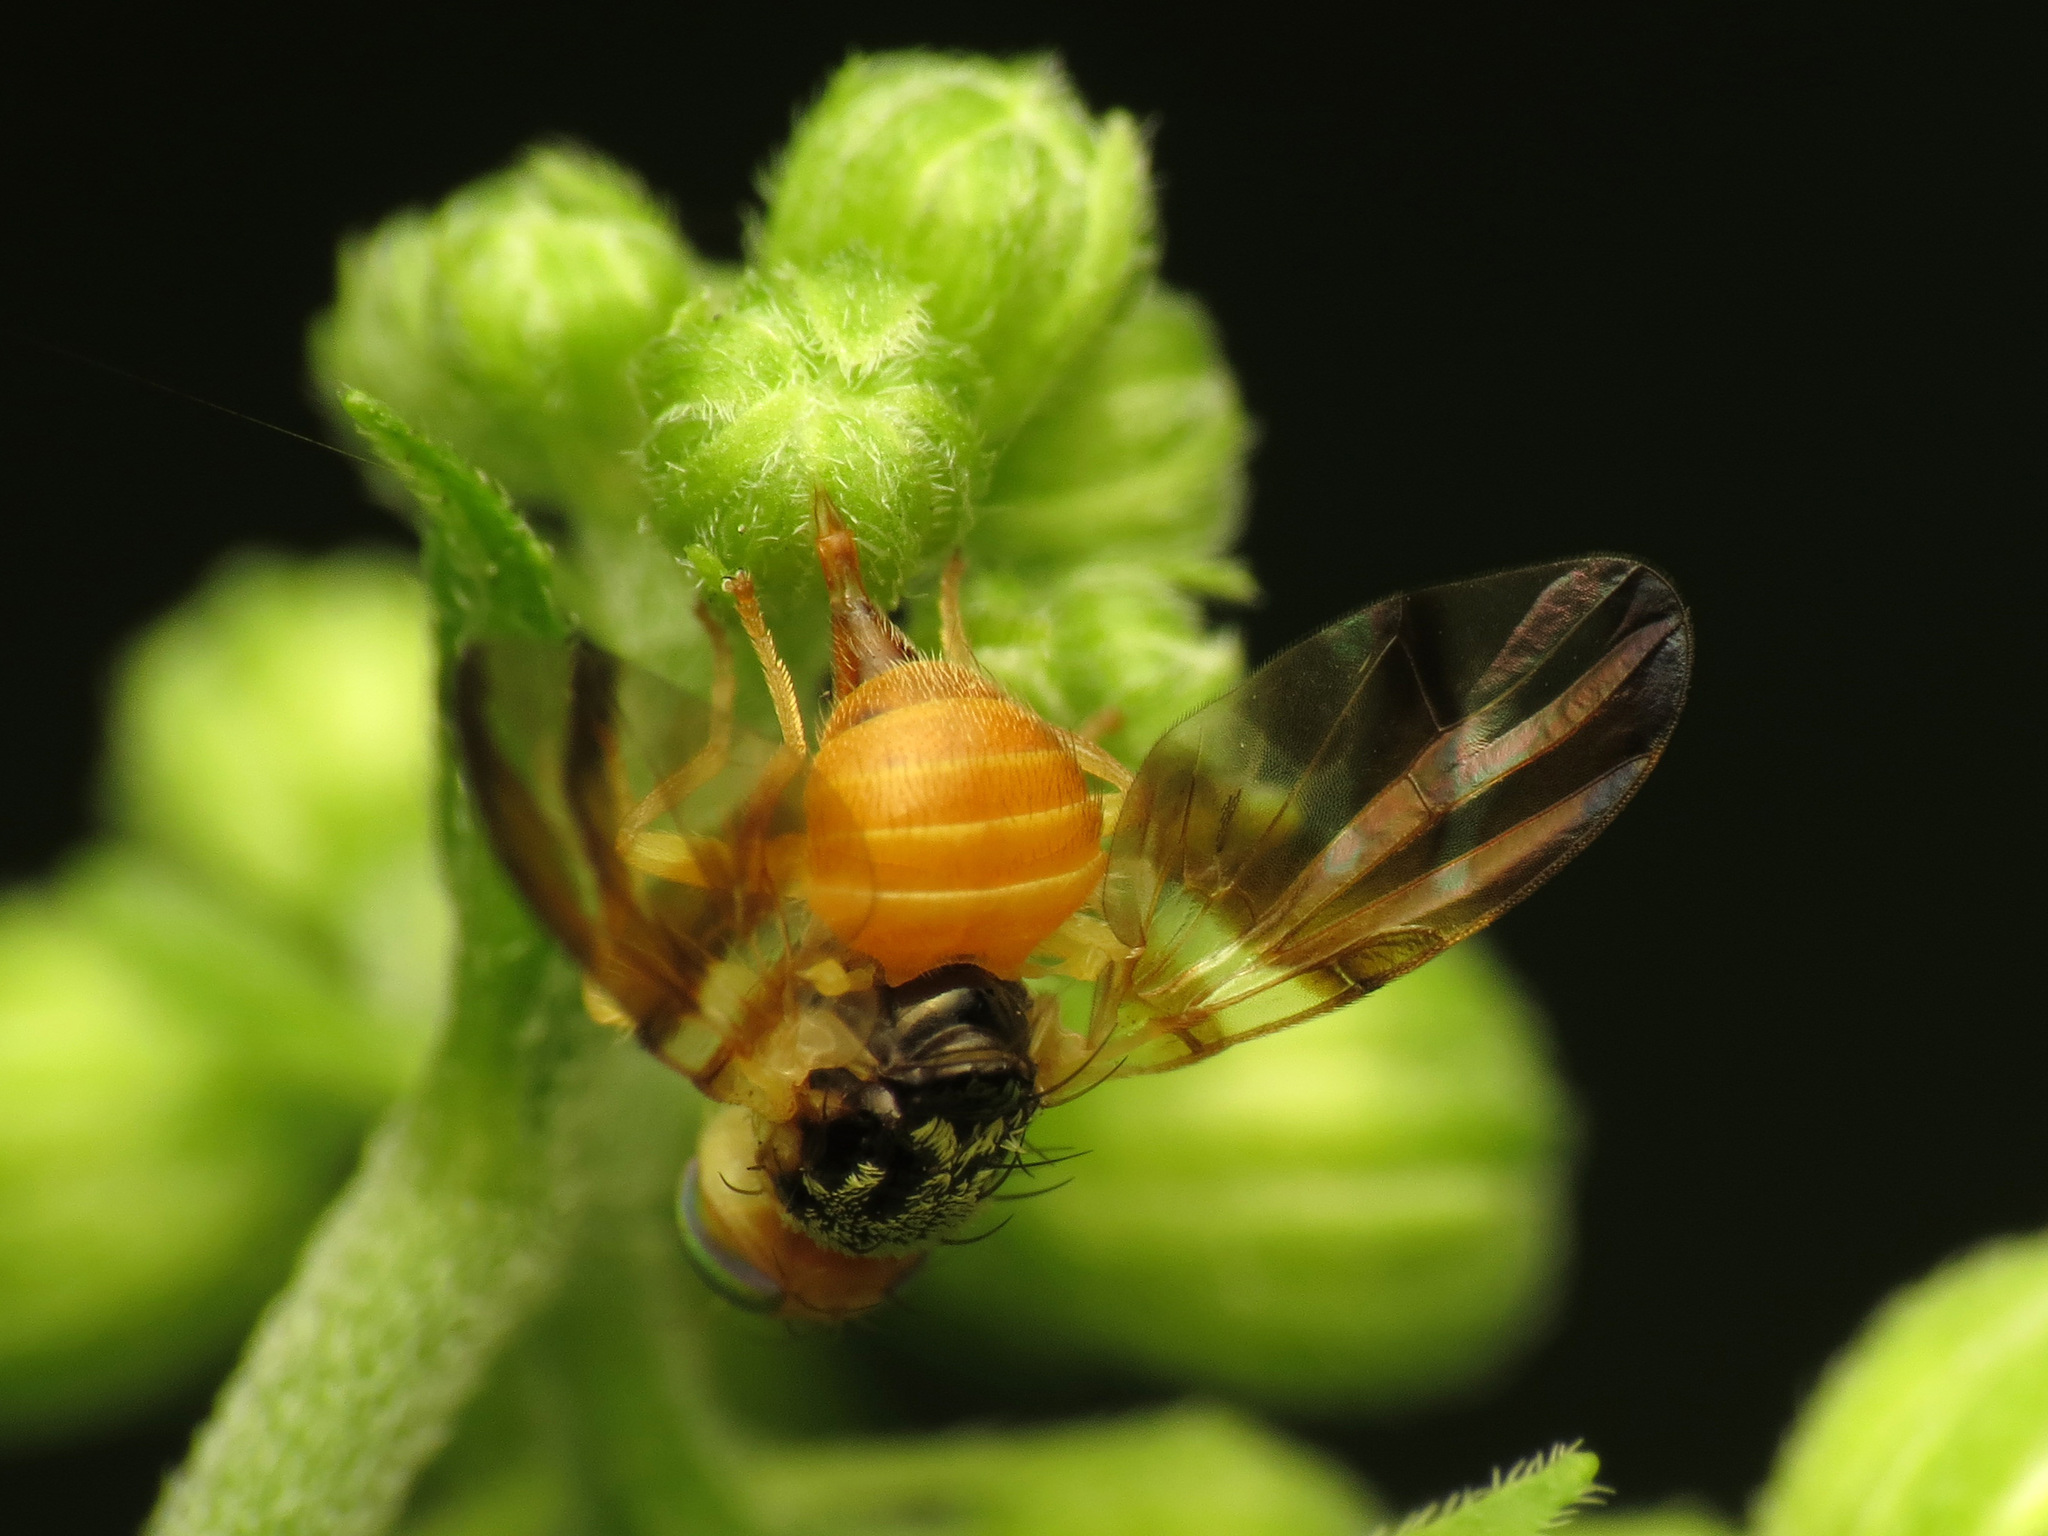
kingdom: Animalia
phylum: Arthropoda
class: Insecta
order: Diptera
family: Tephritidae
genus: Procecidocharoides
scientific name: Procecidocharoides penelope
